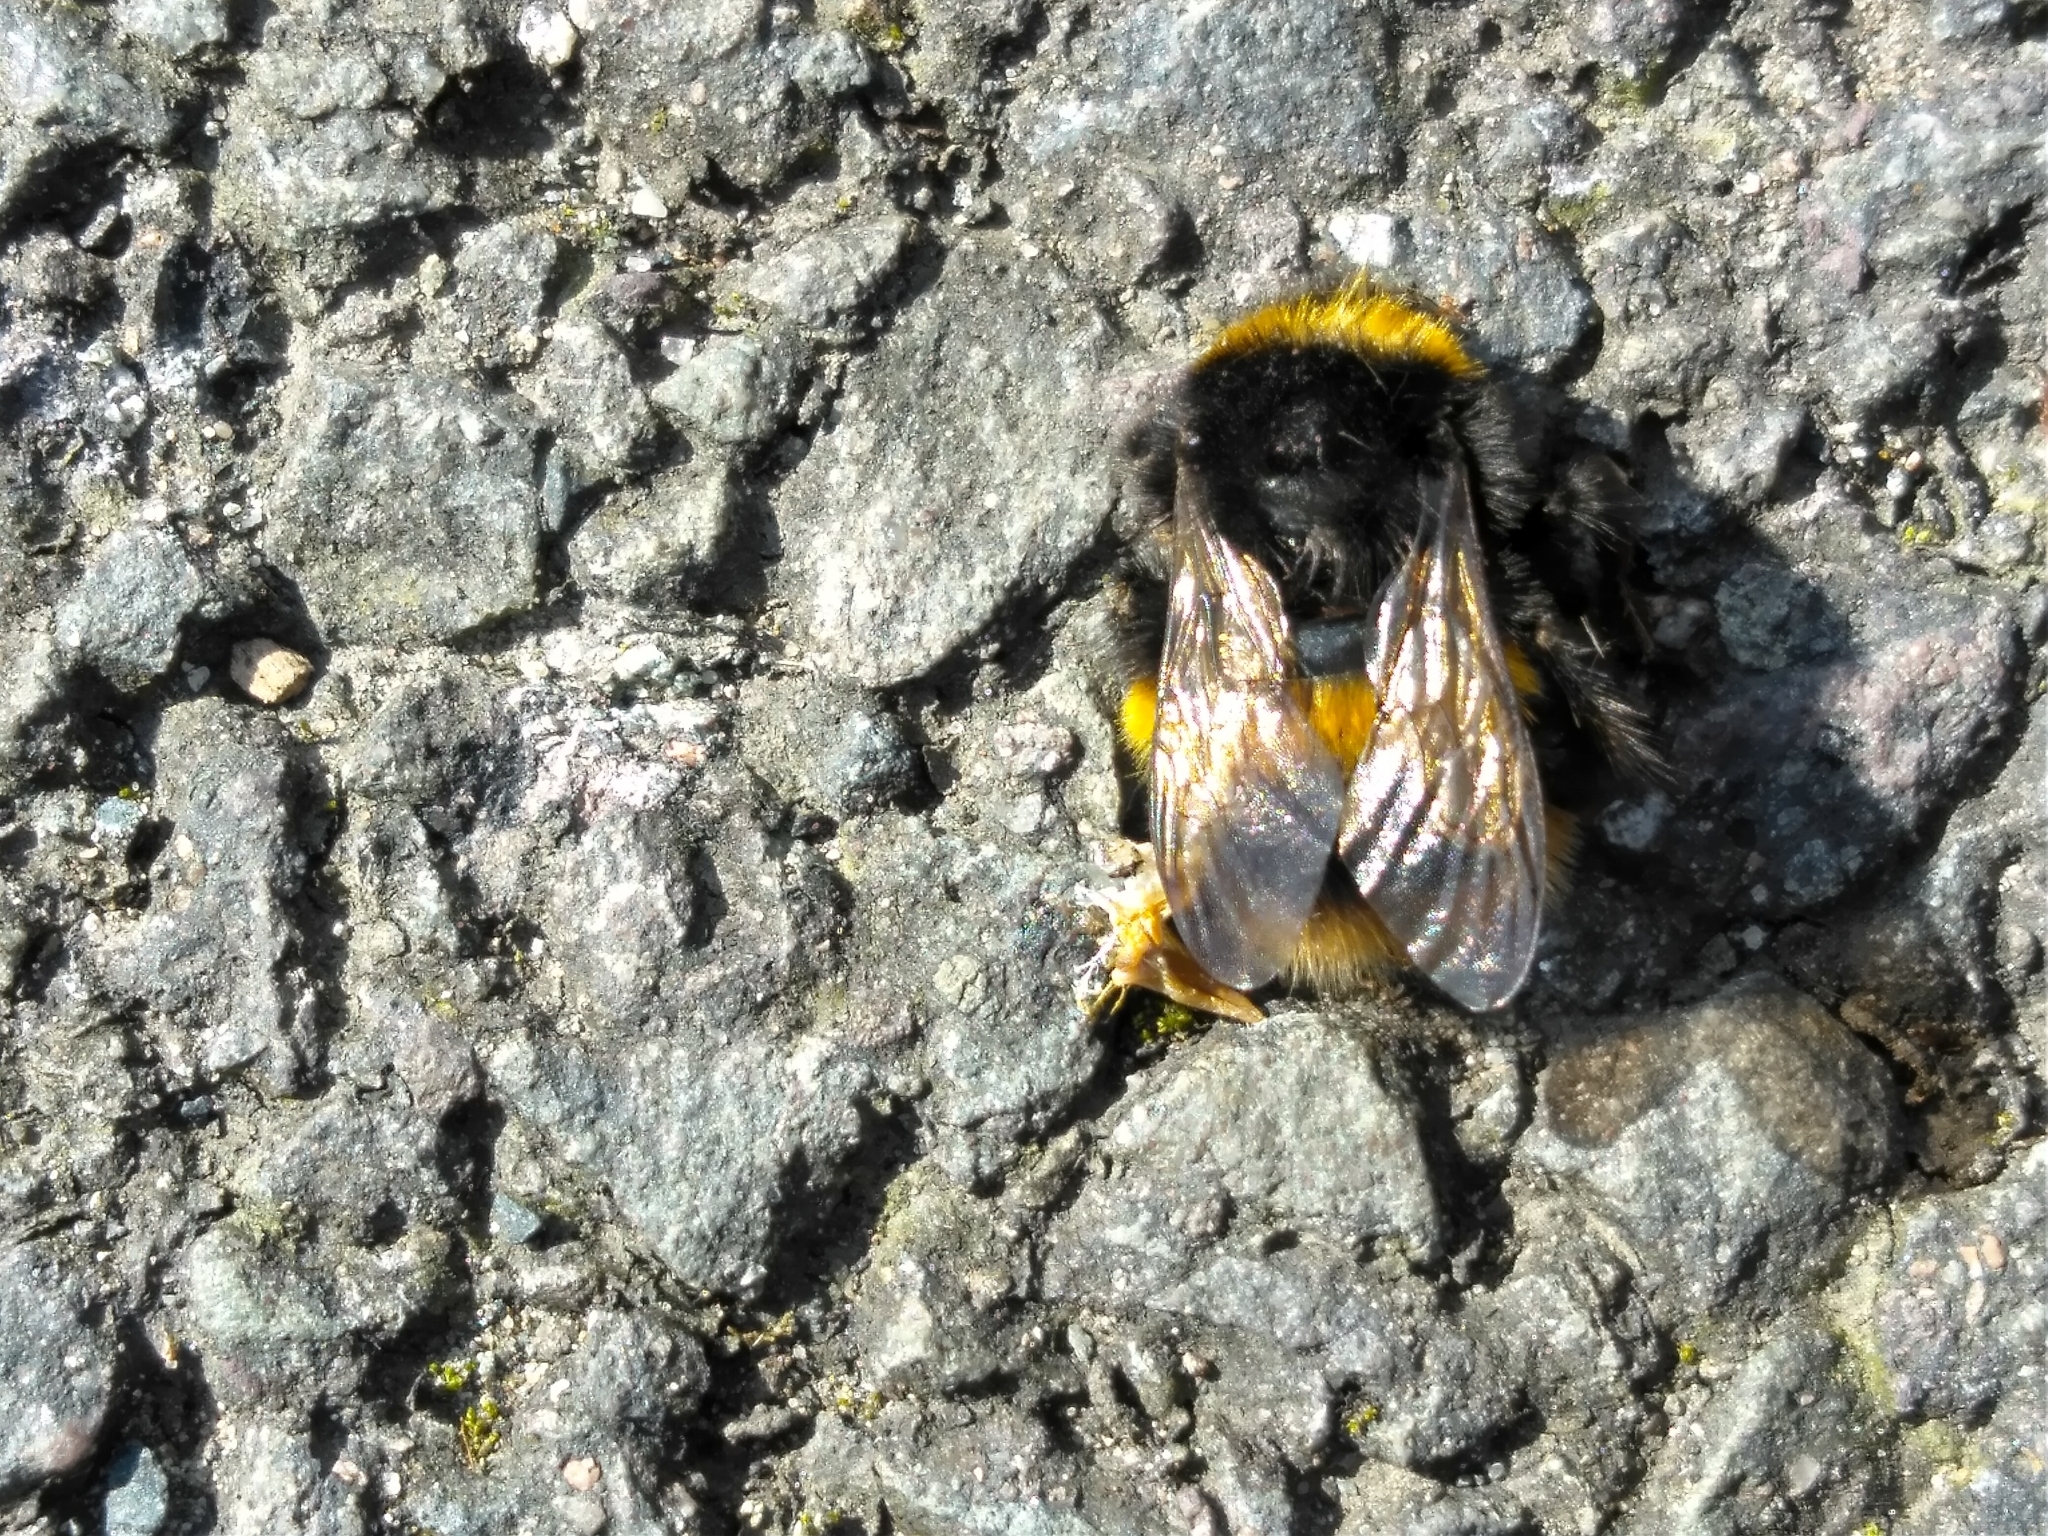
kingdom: Animalia
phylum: Arthropoda
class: Insecta
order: Hymenoptera
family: Apidae
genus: Bombus
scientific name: Bombus terrestris
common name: Buff-tailed bumblebee
